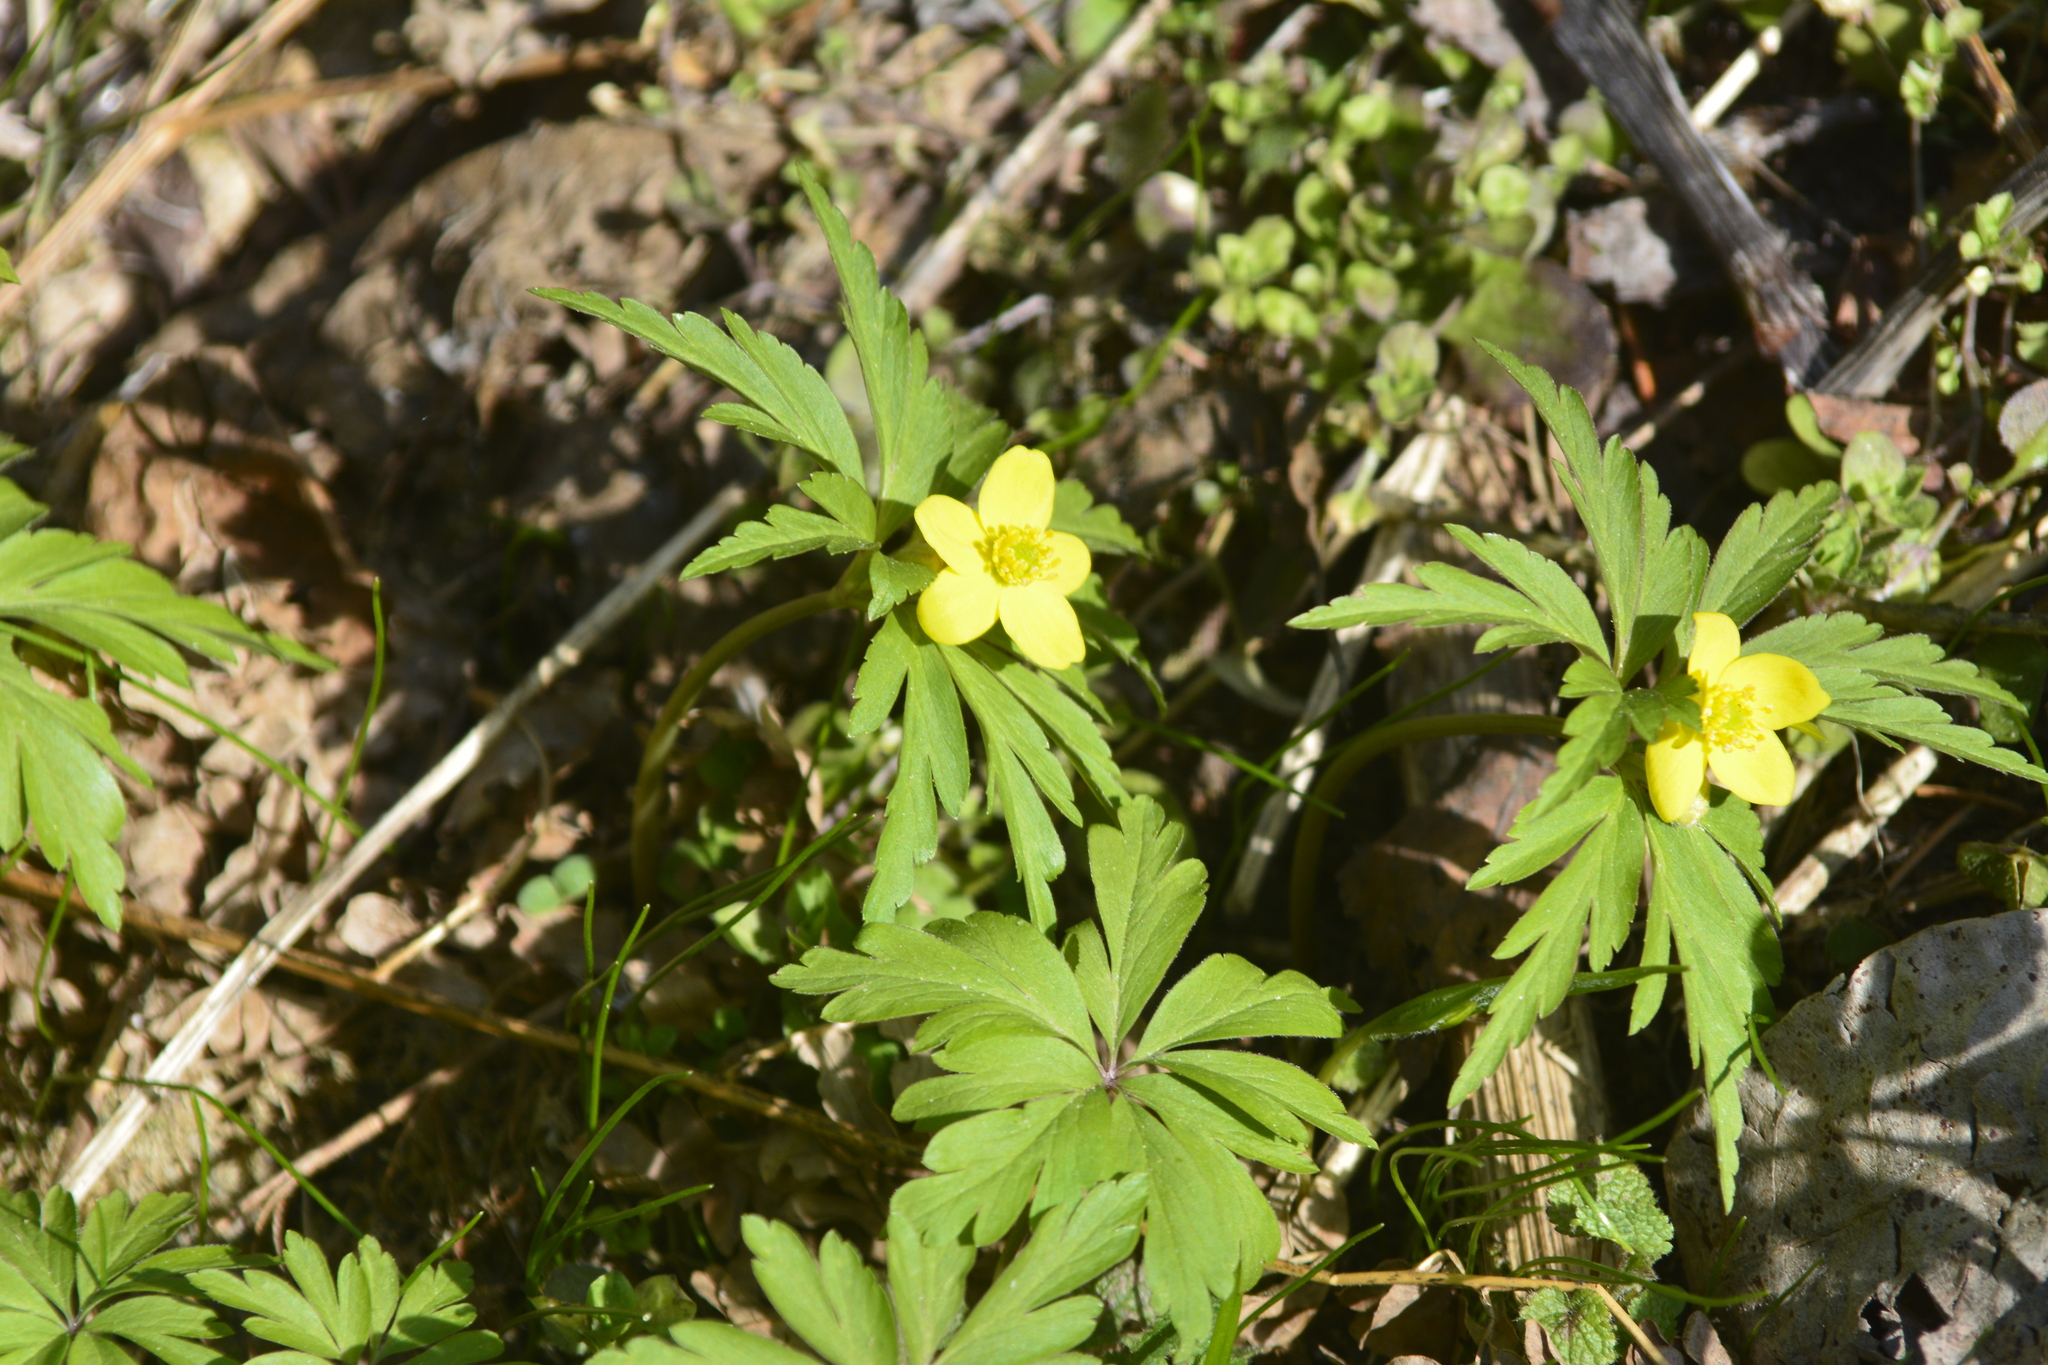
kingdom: Plantae
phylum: Tracheophyta
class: Magnoliopsida
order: Ranunculales
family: Ranunculaceae
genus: Anemone
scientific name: Anemone ranunculoides
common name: Yellow anemone
